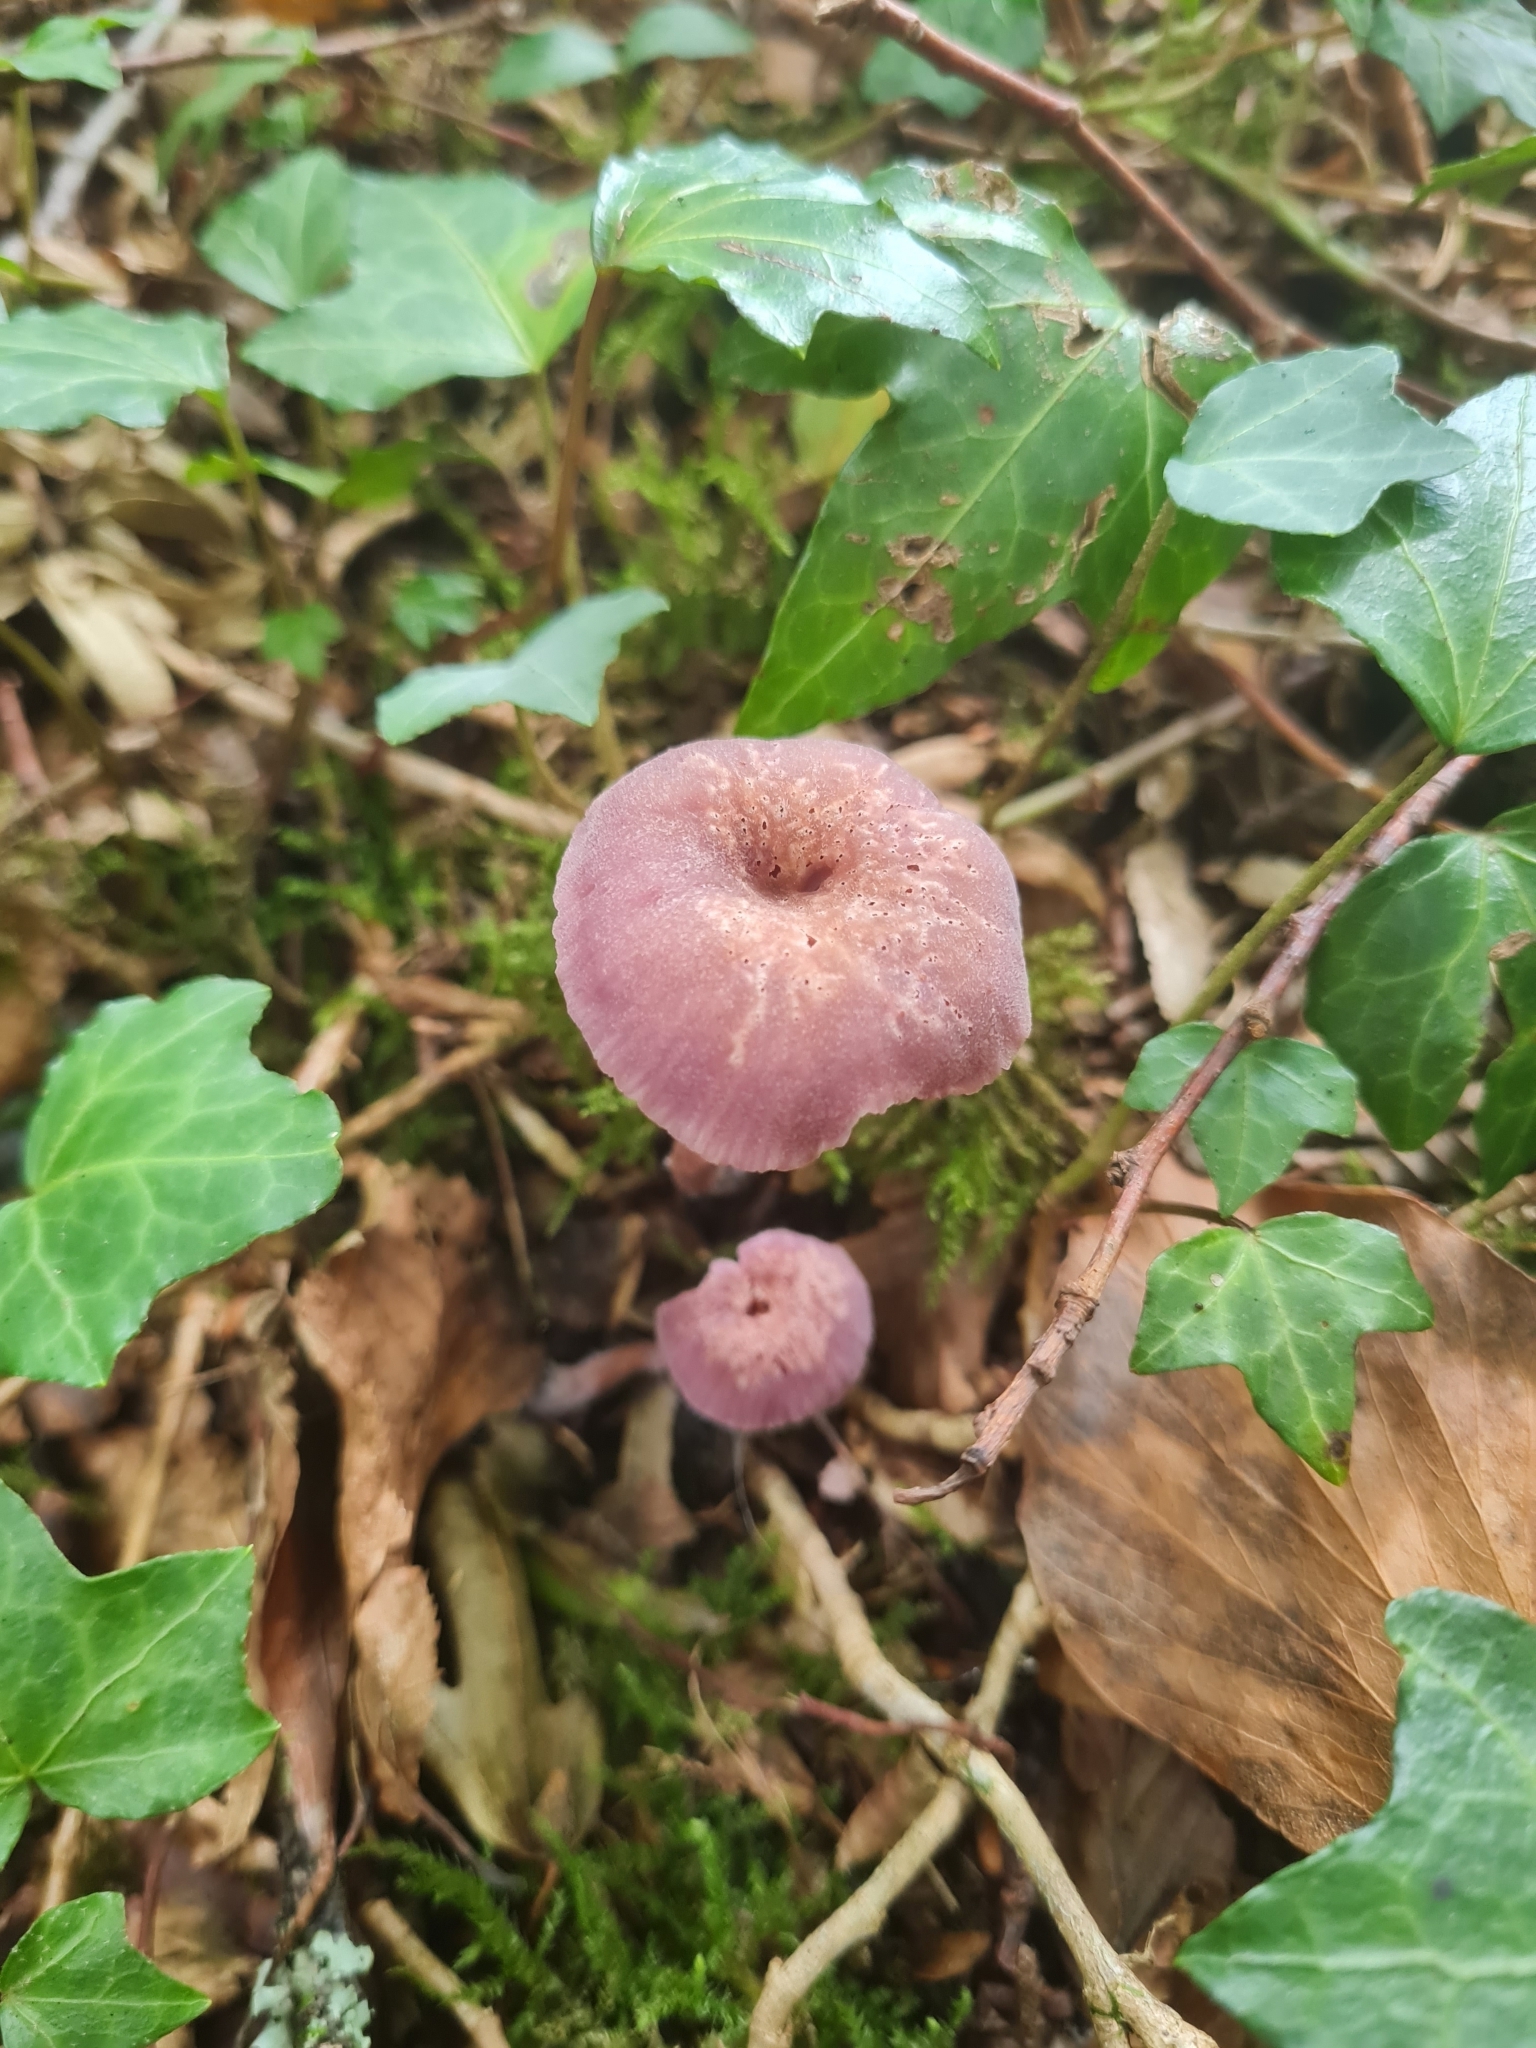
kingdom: Fungi
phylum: Basidiomycota
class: Agaricomycetes
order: Agaricales
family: Hydnangiaceae
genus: Laccaria
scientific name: Laccaria amethystina
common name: Amethyst deceiver
